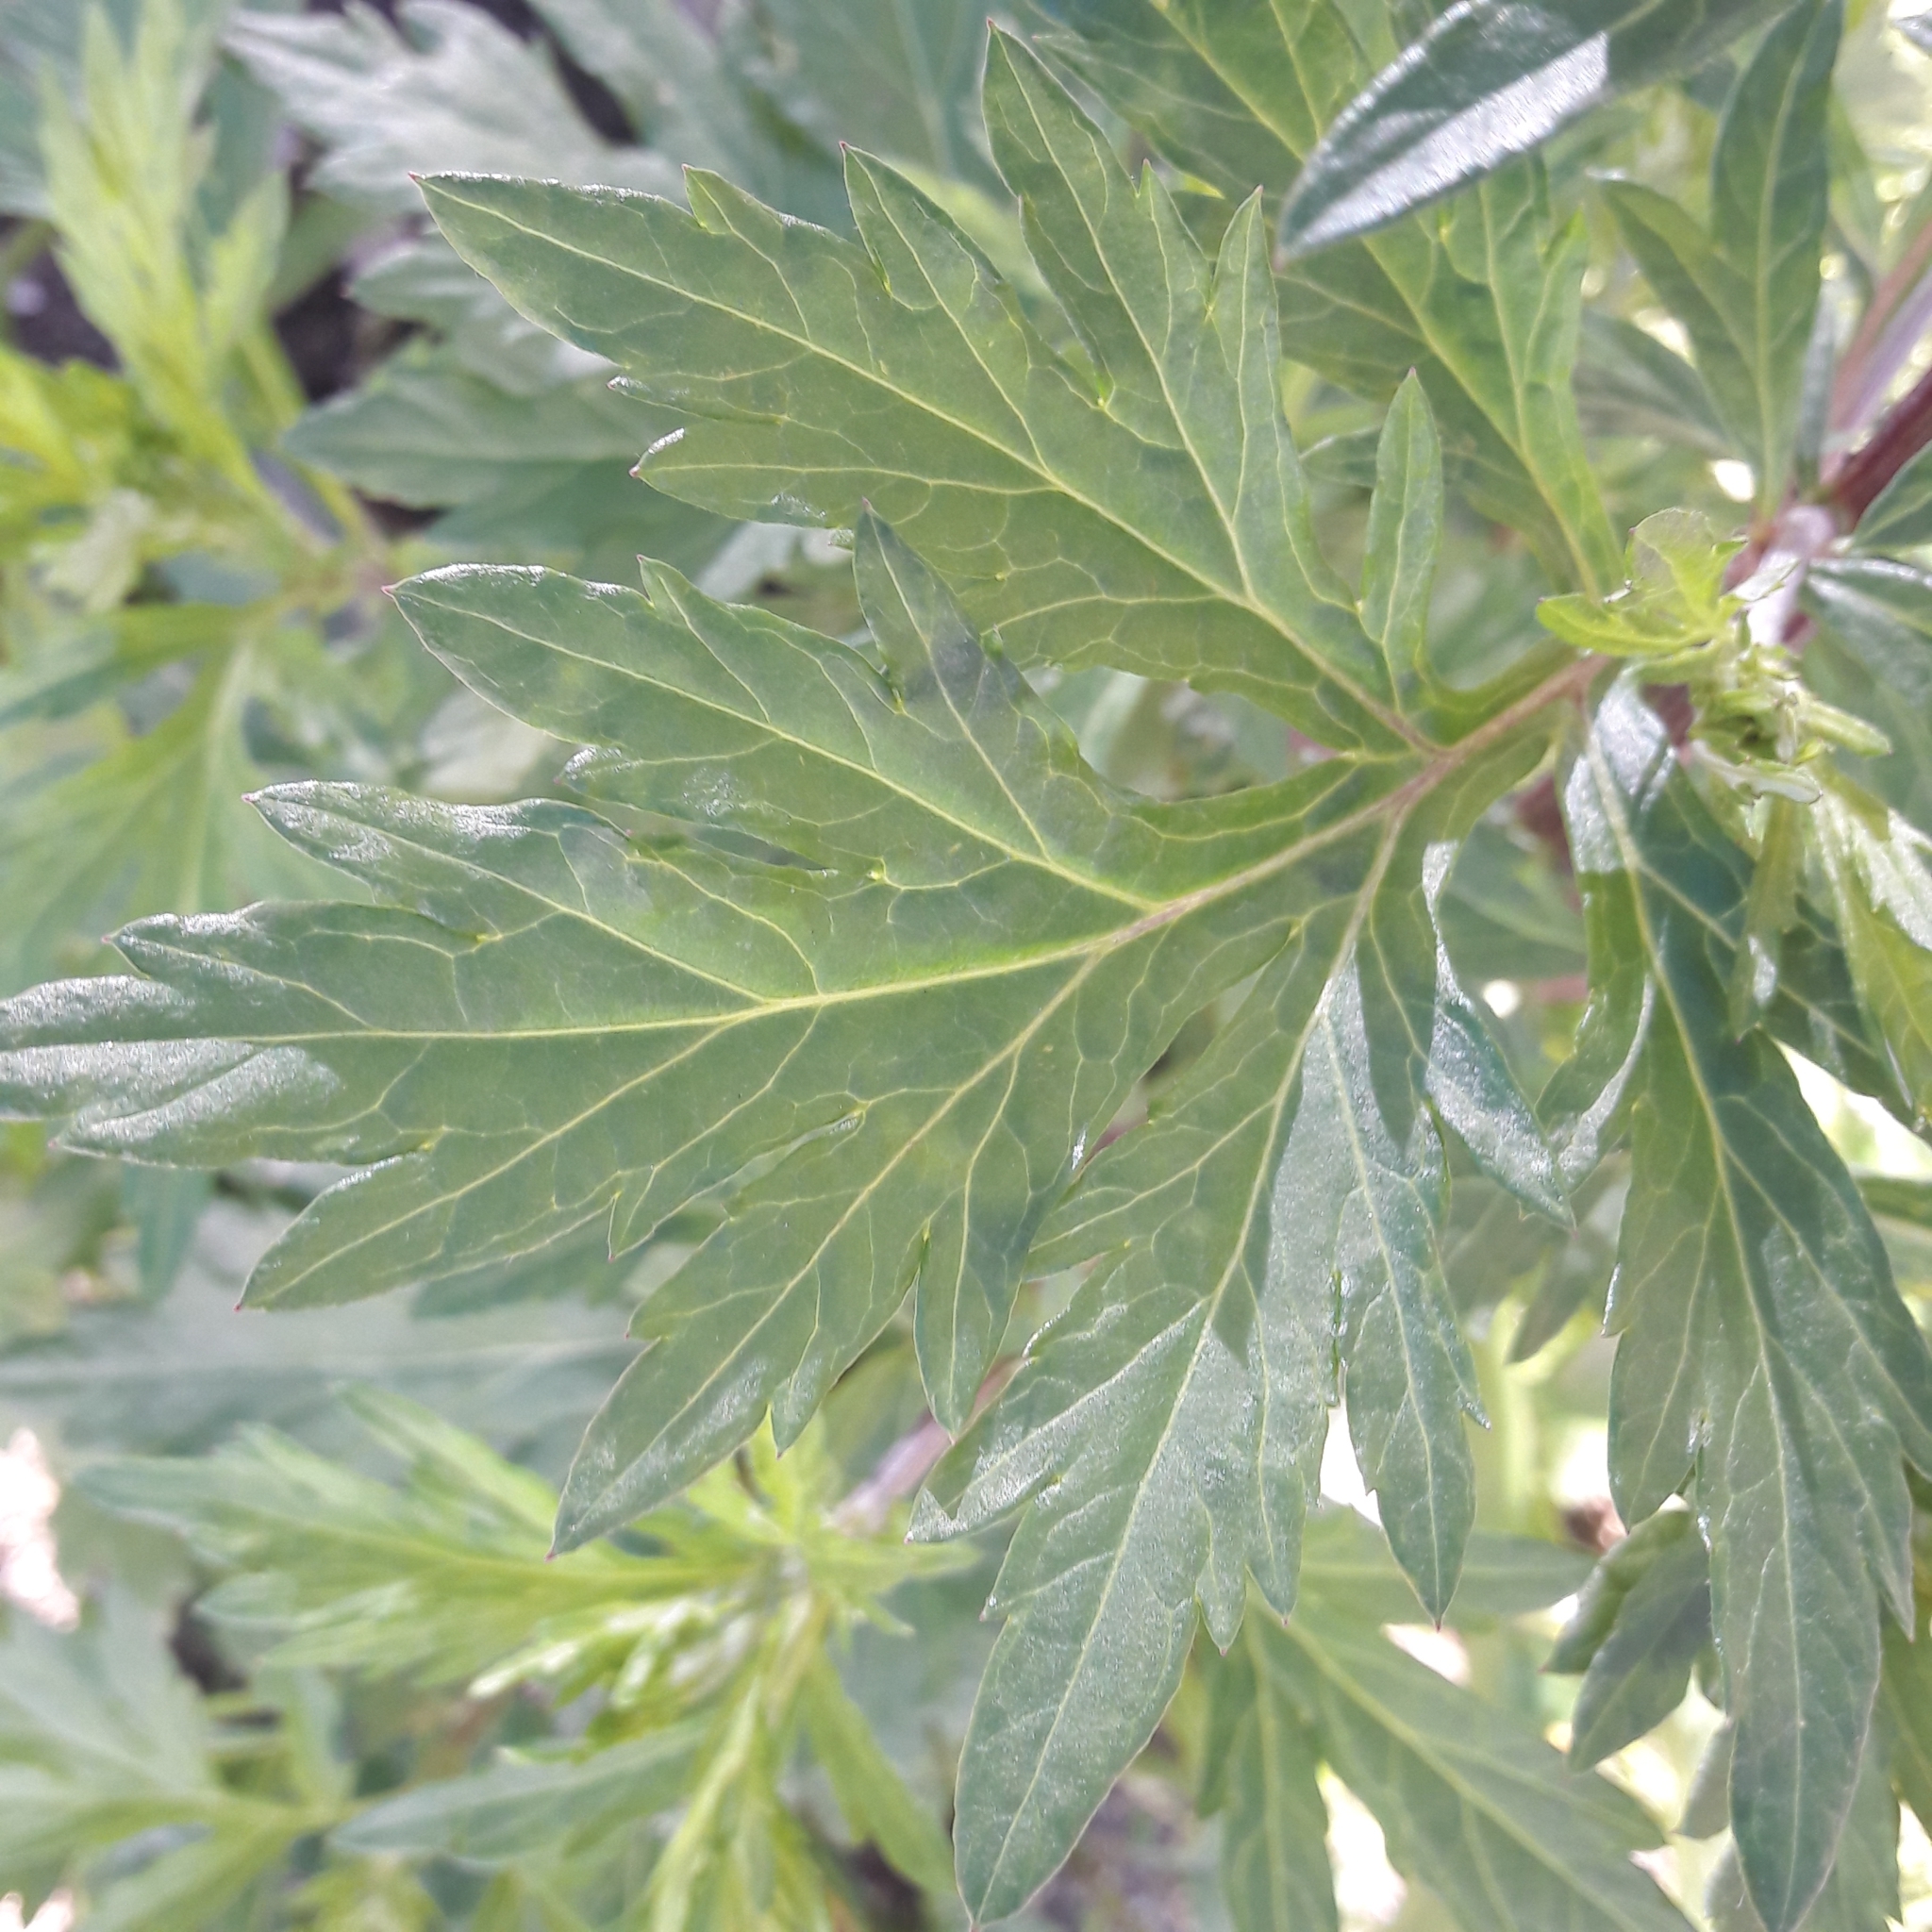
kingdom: Plantae
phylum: Tracheophyta
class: Magnoliopsida
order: Asterales
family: Asteraceae
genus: Artemisia
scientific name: Artemisia vulgaris
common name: Mugwort
